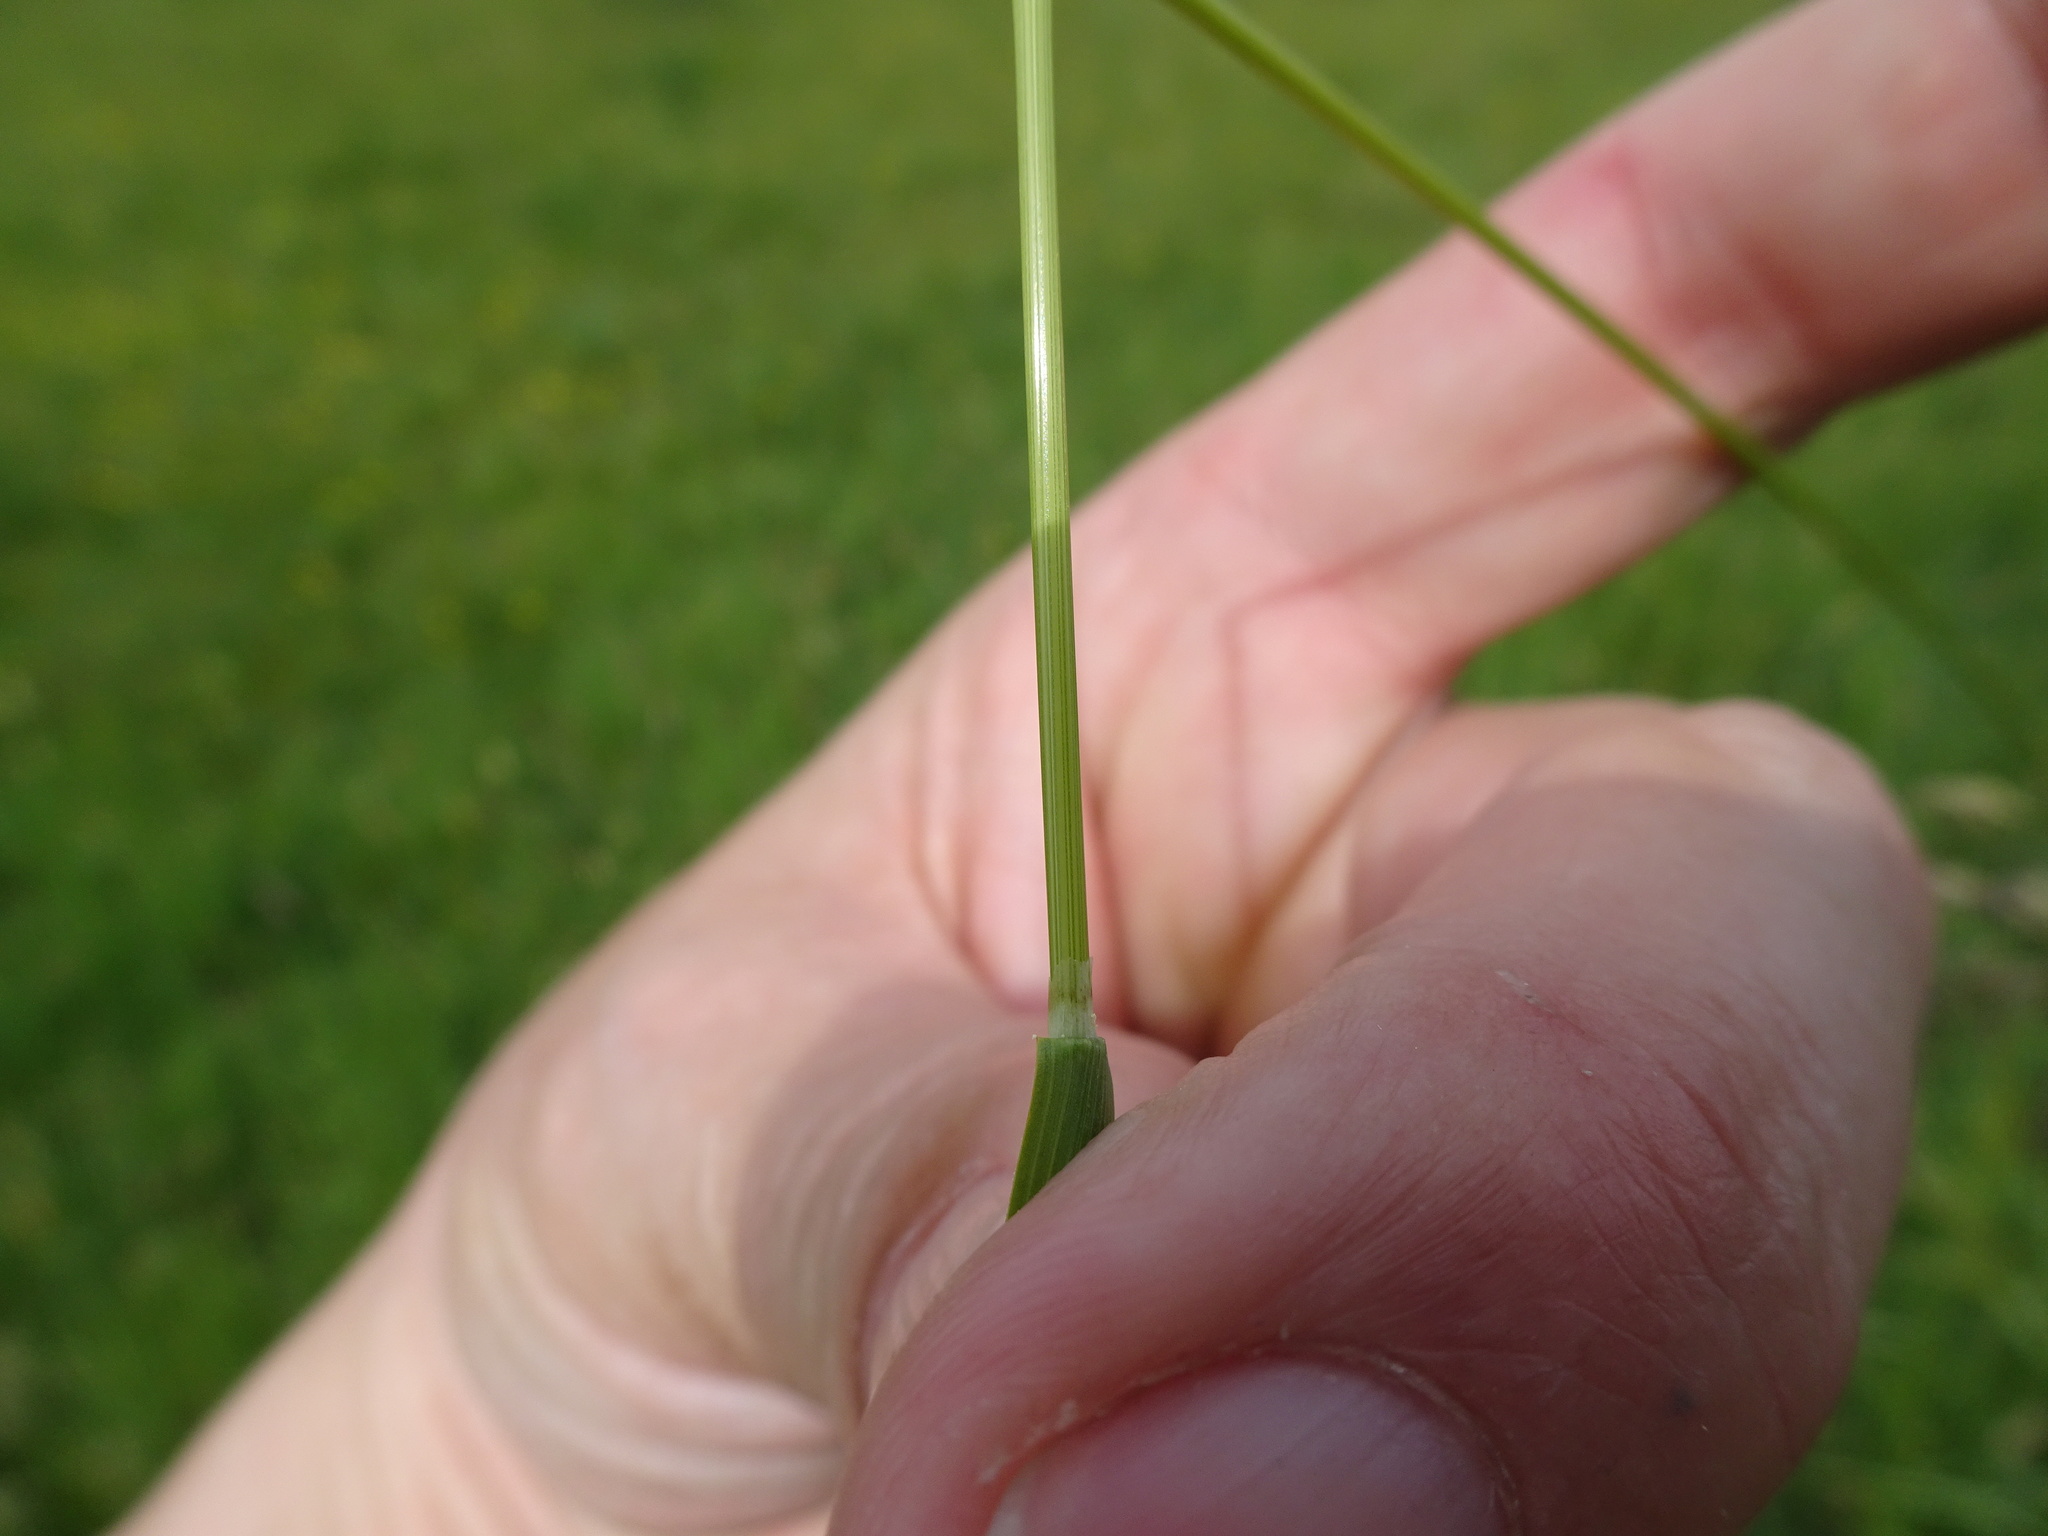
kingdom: Plantae
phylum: Tracheophyta
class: Liliopsida
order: Poales
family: Poaceae
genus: Poa
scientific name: Poa pratensis
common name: Kentucky bluegrass
